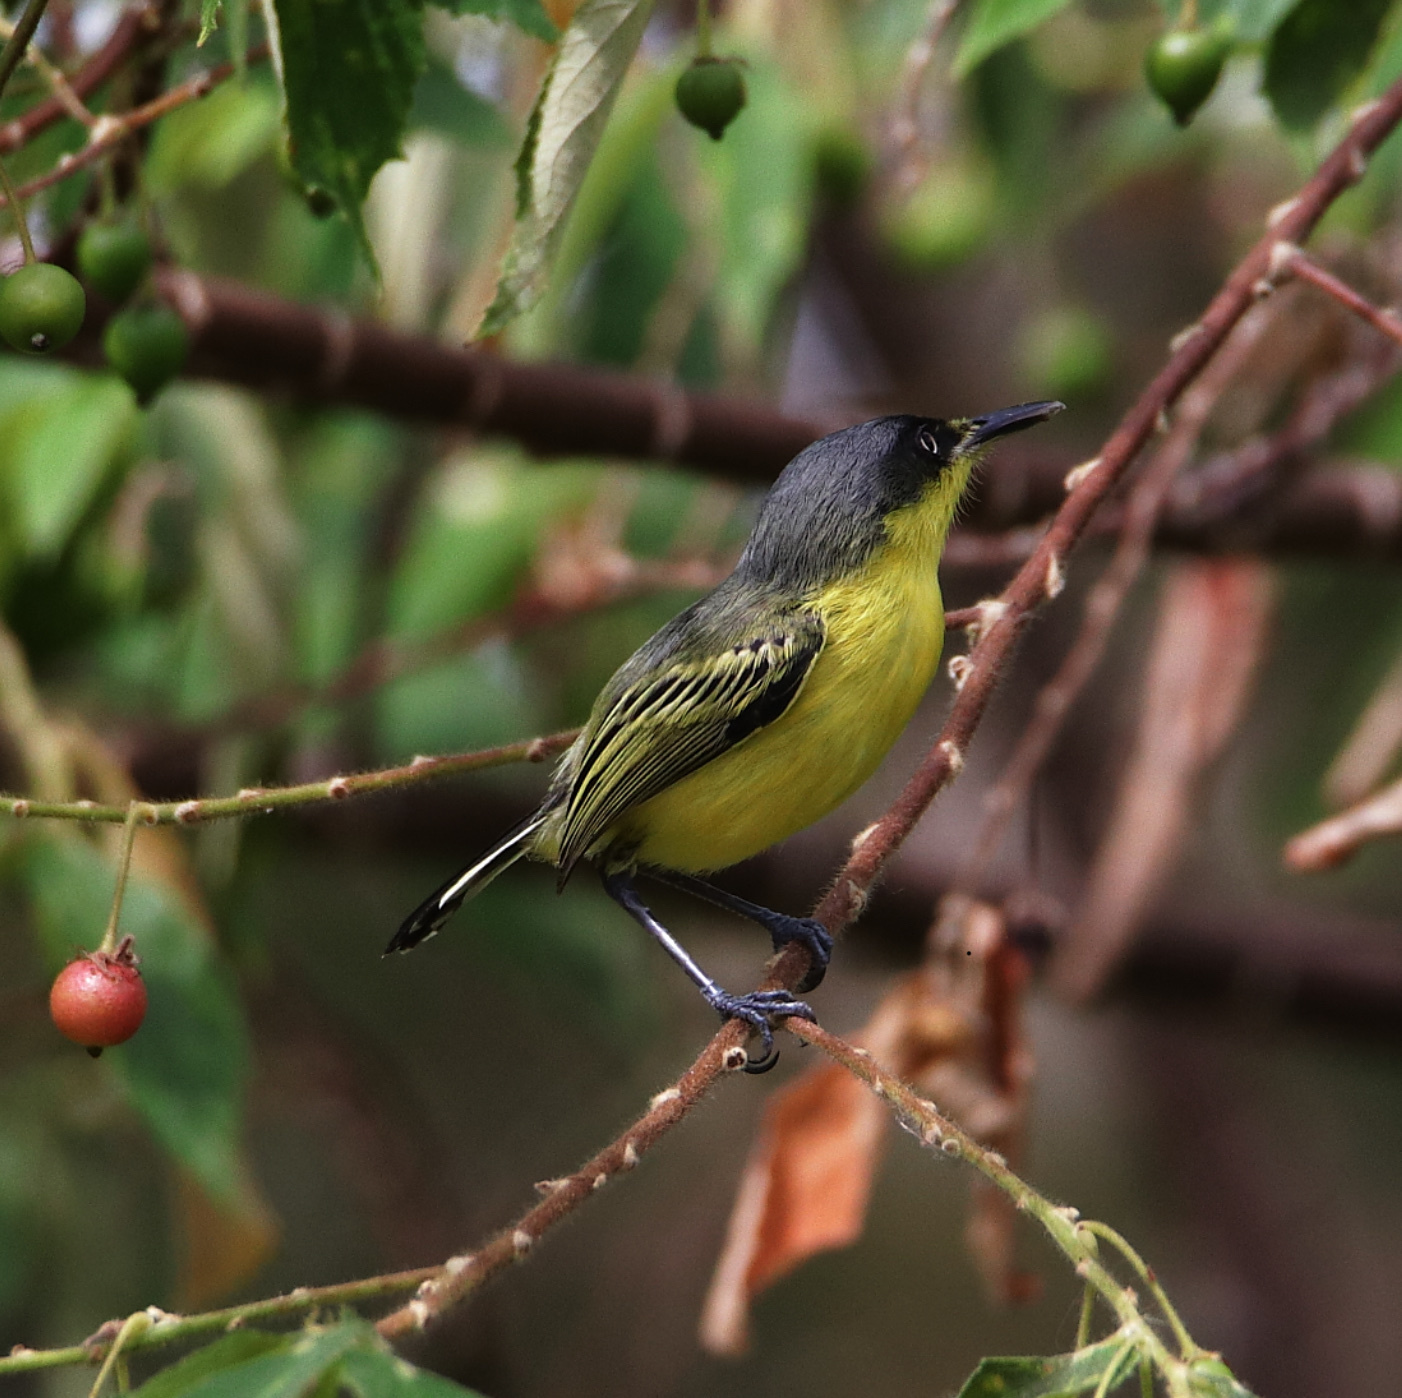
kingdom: Animalia
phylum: Chordata
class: Aves
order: Passeriformes
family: Tyrannidae
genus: Todirostrum
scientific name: Todirostrum cinereum
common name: Common tody-flycatcher
